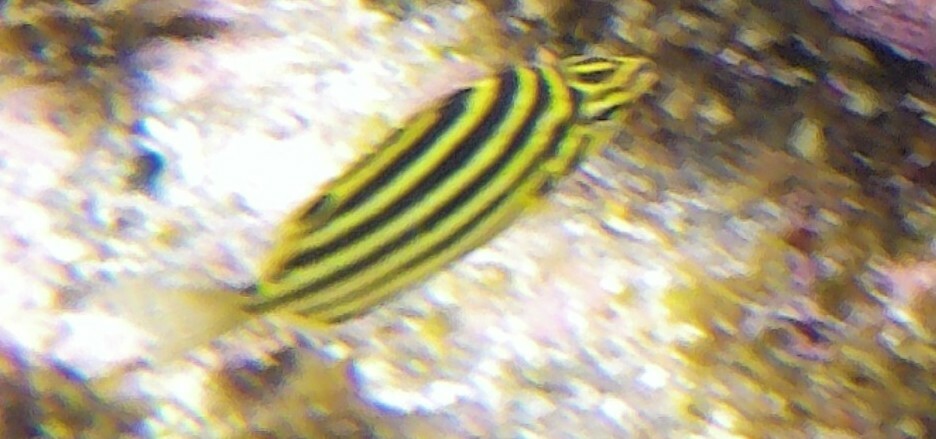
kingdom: Animalia
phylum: Chordata
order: Perciformes
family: Kyphosidae
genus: Microcanthus
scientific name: Microcanthus joyceae
